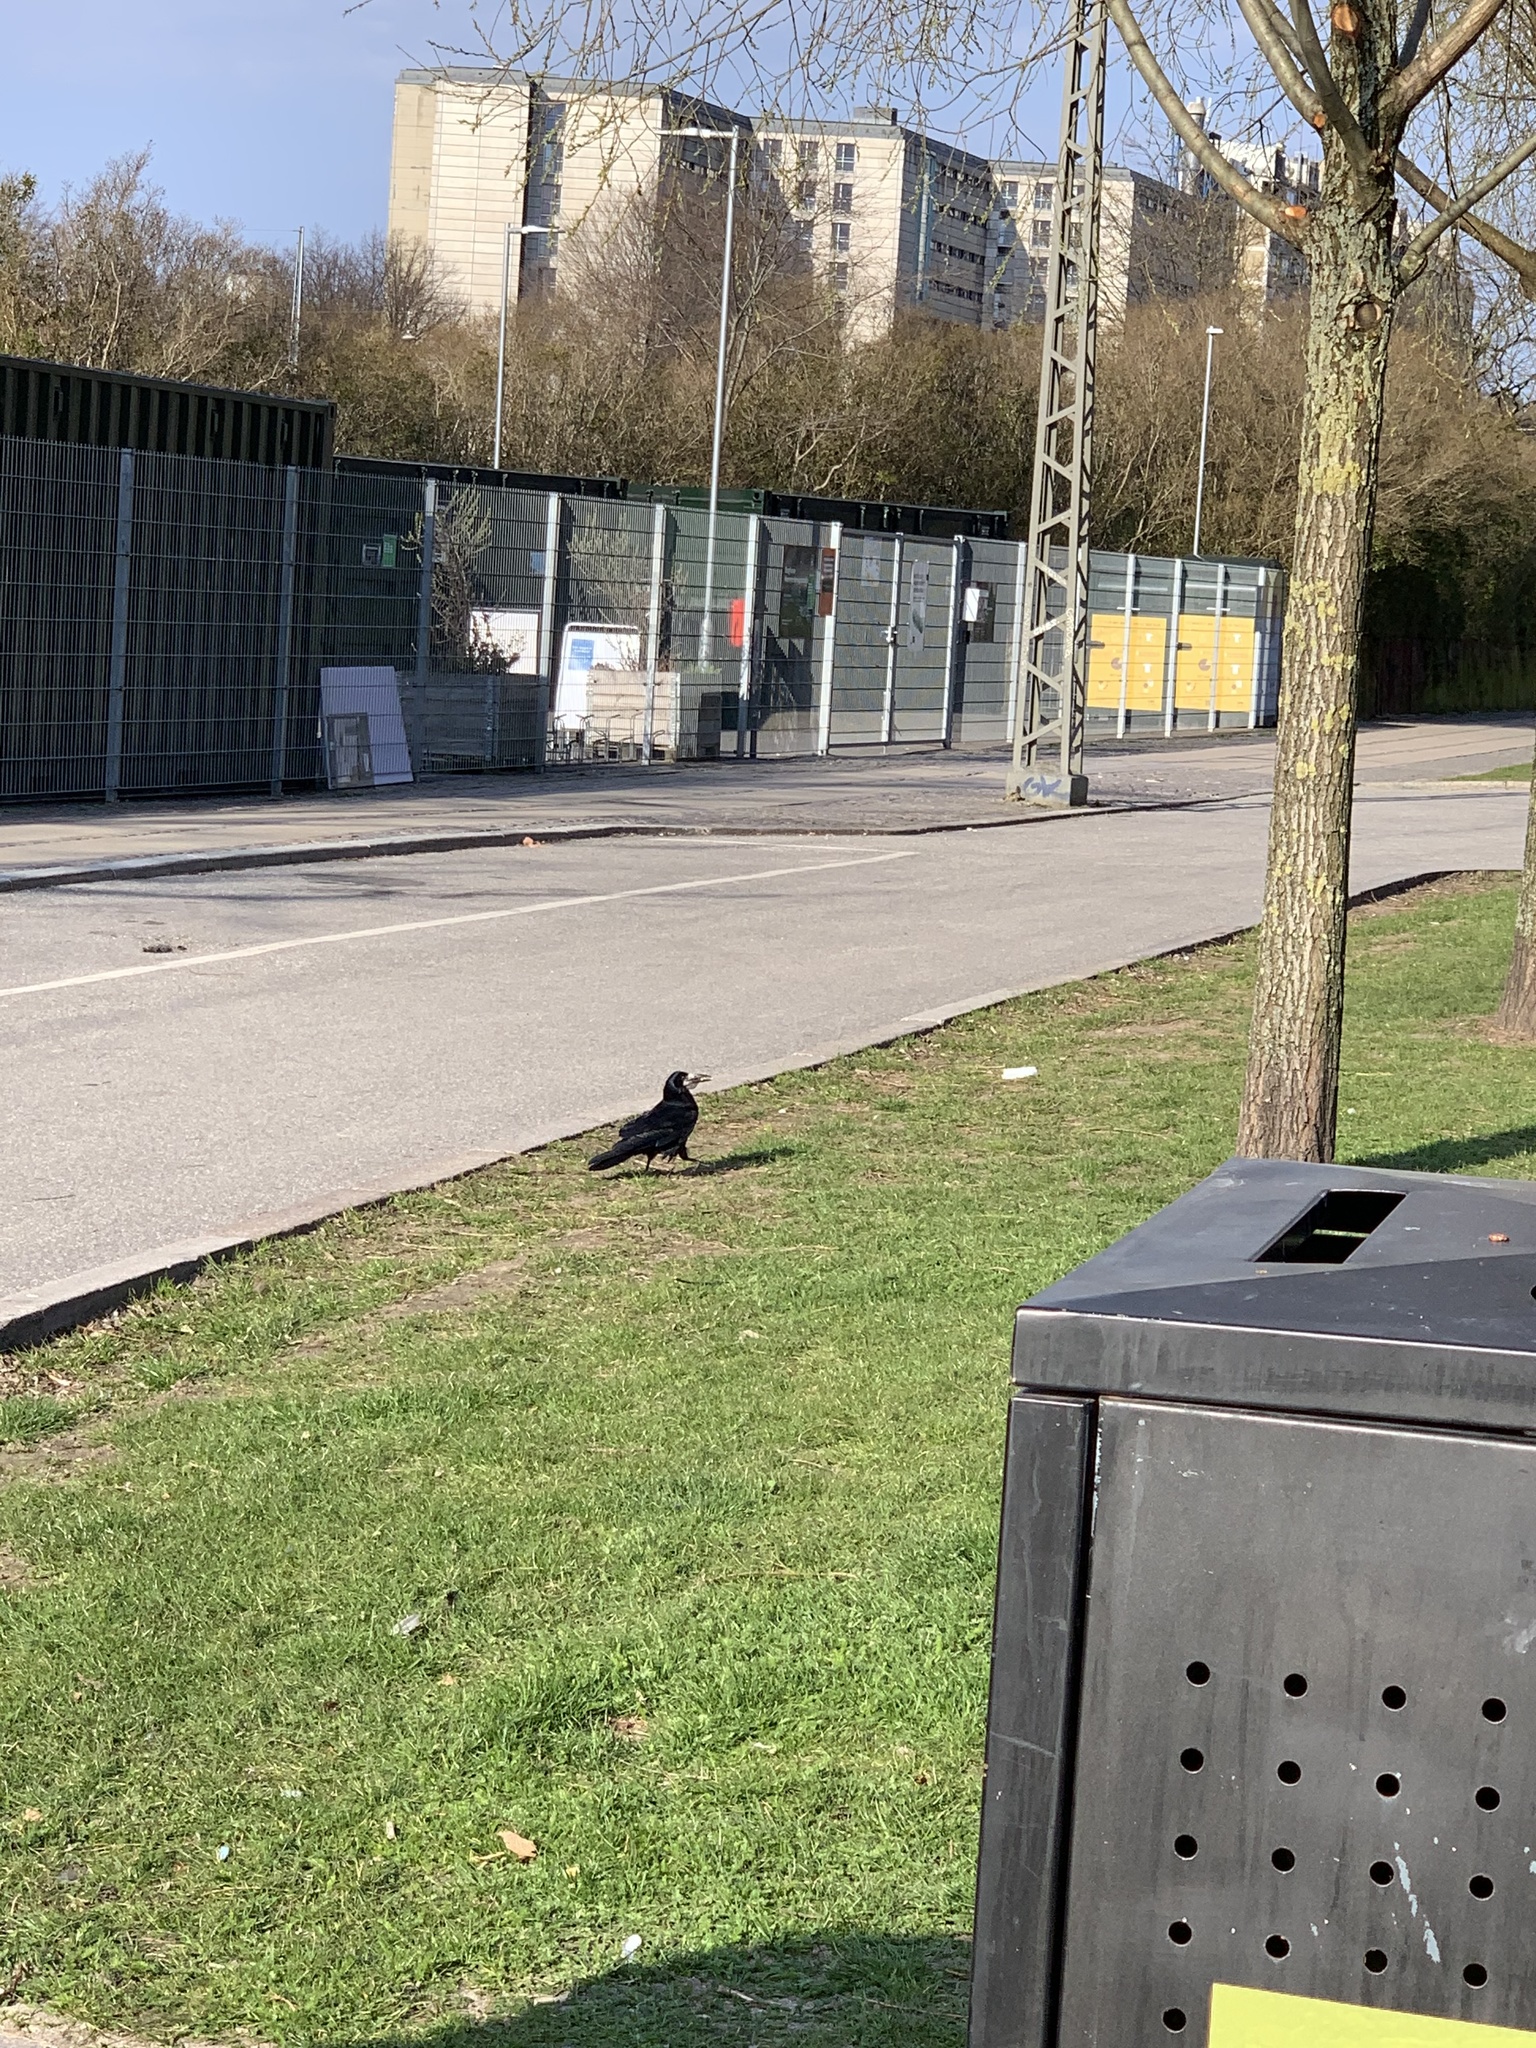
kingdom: Animalia
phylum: Chordata
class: Aves
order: Passeriformes
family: Corvidae
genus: Corvus
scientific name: Corvus frugilegus
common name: Rook
